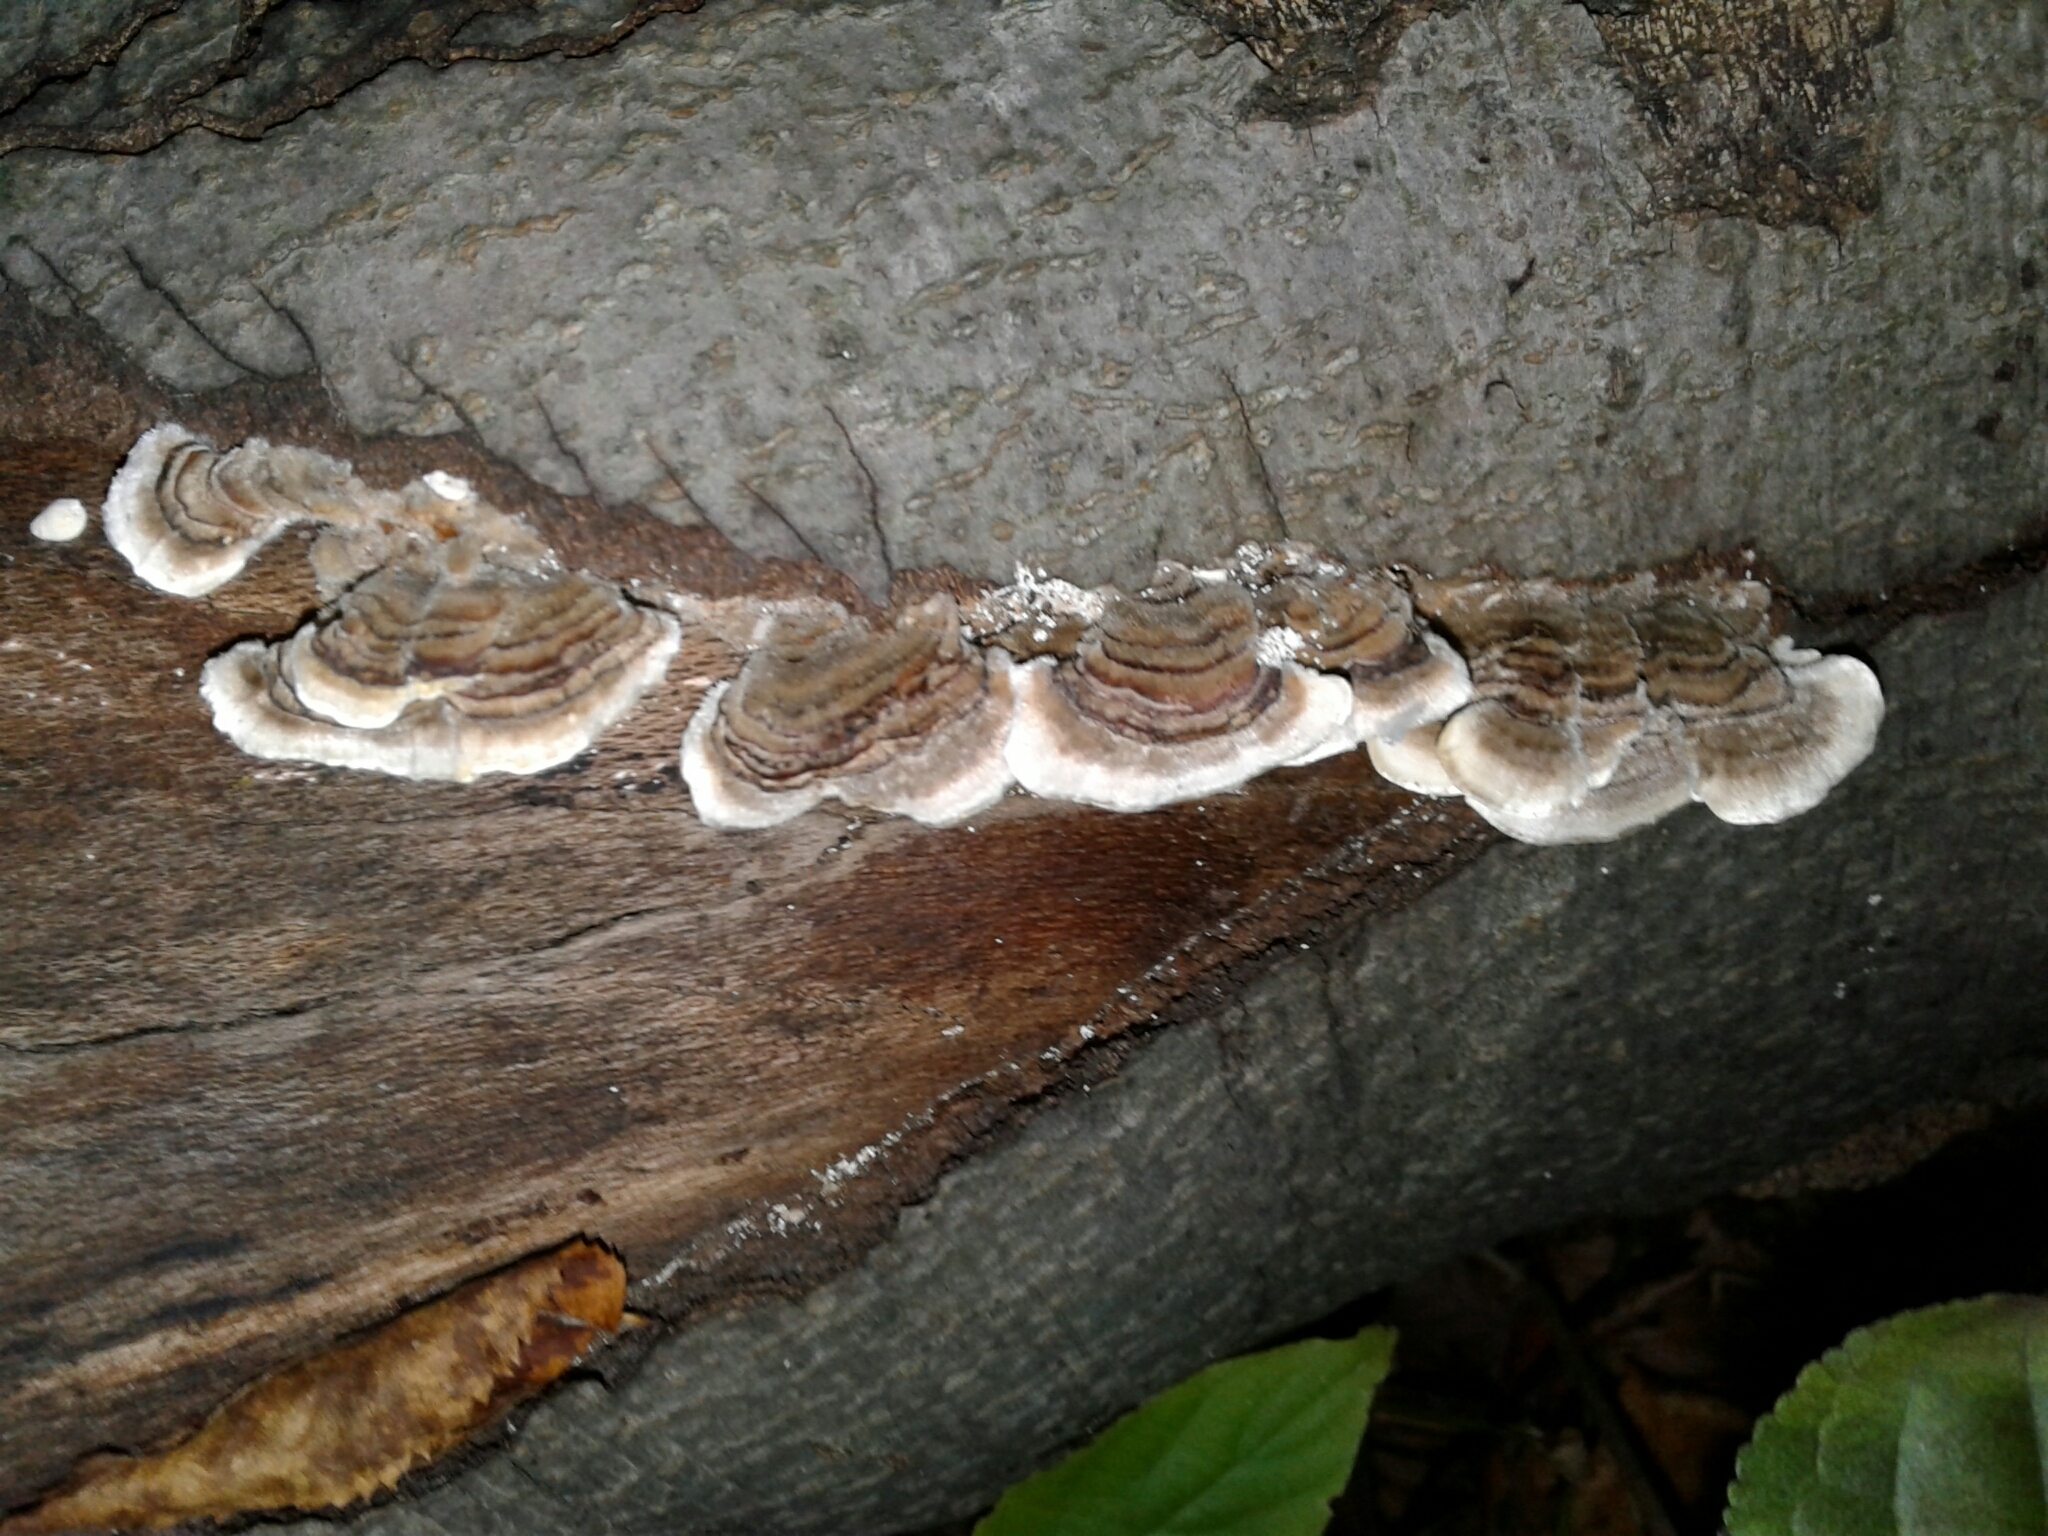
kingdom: Fungi
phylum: Basidiomycota
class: Agaricomycetes
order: Polyporales
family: Polyporaceae
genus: Trametes
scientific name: Trametes versicolor
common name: Turkeytail
